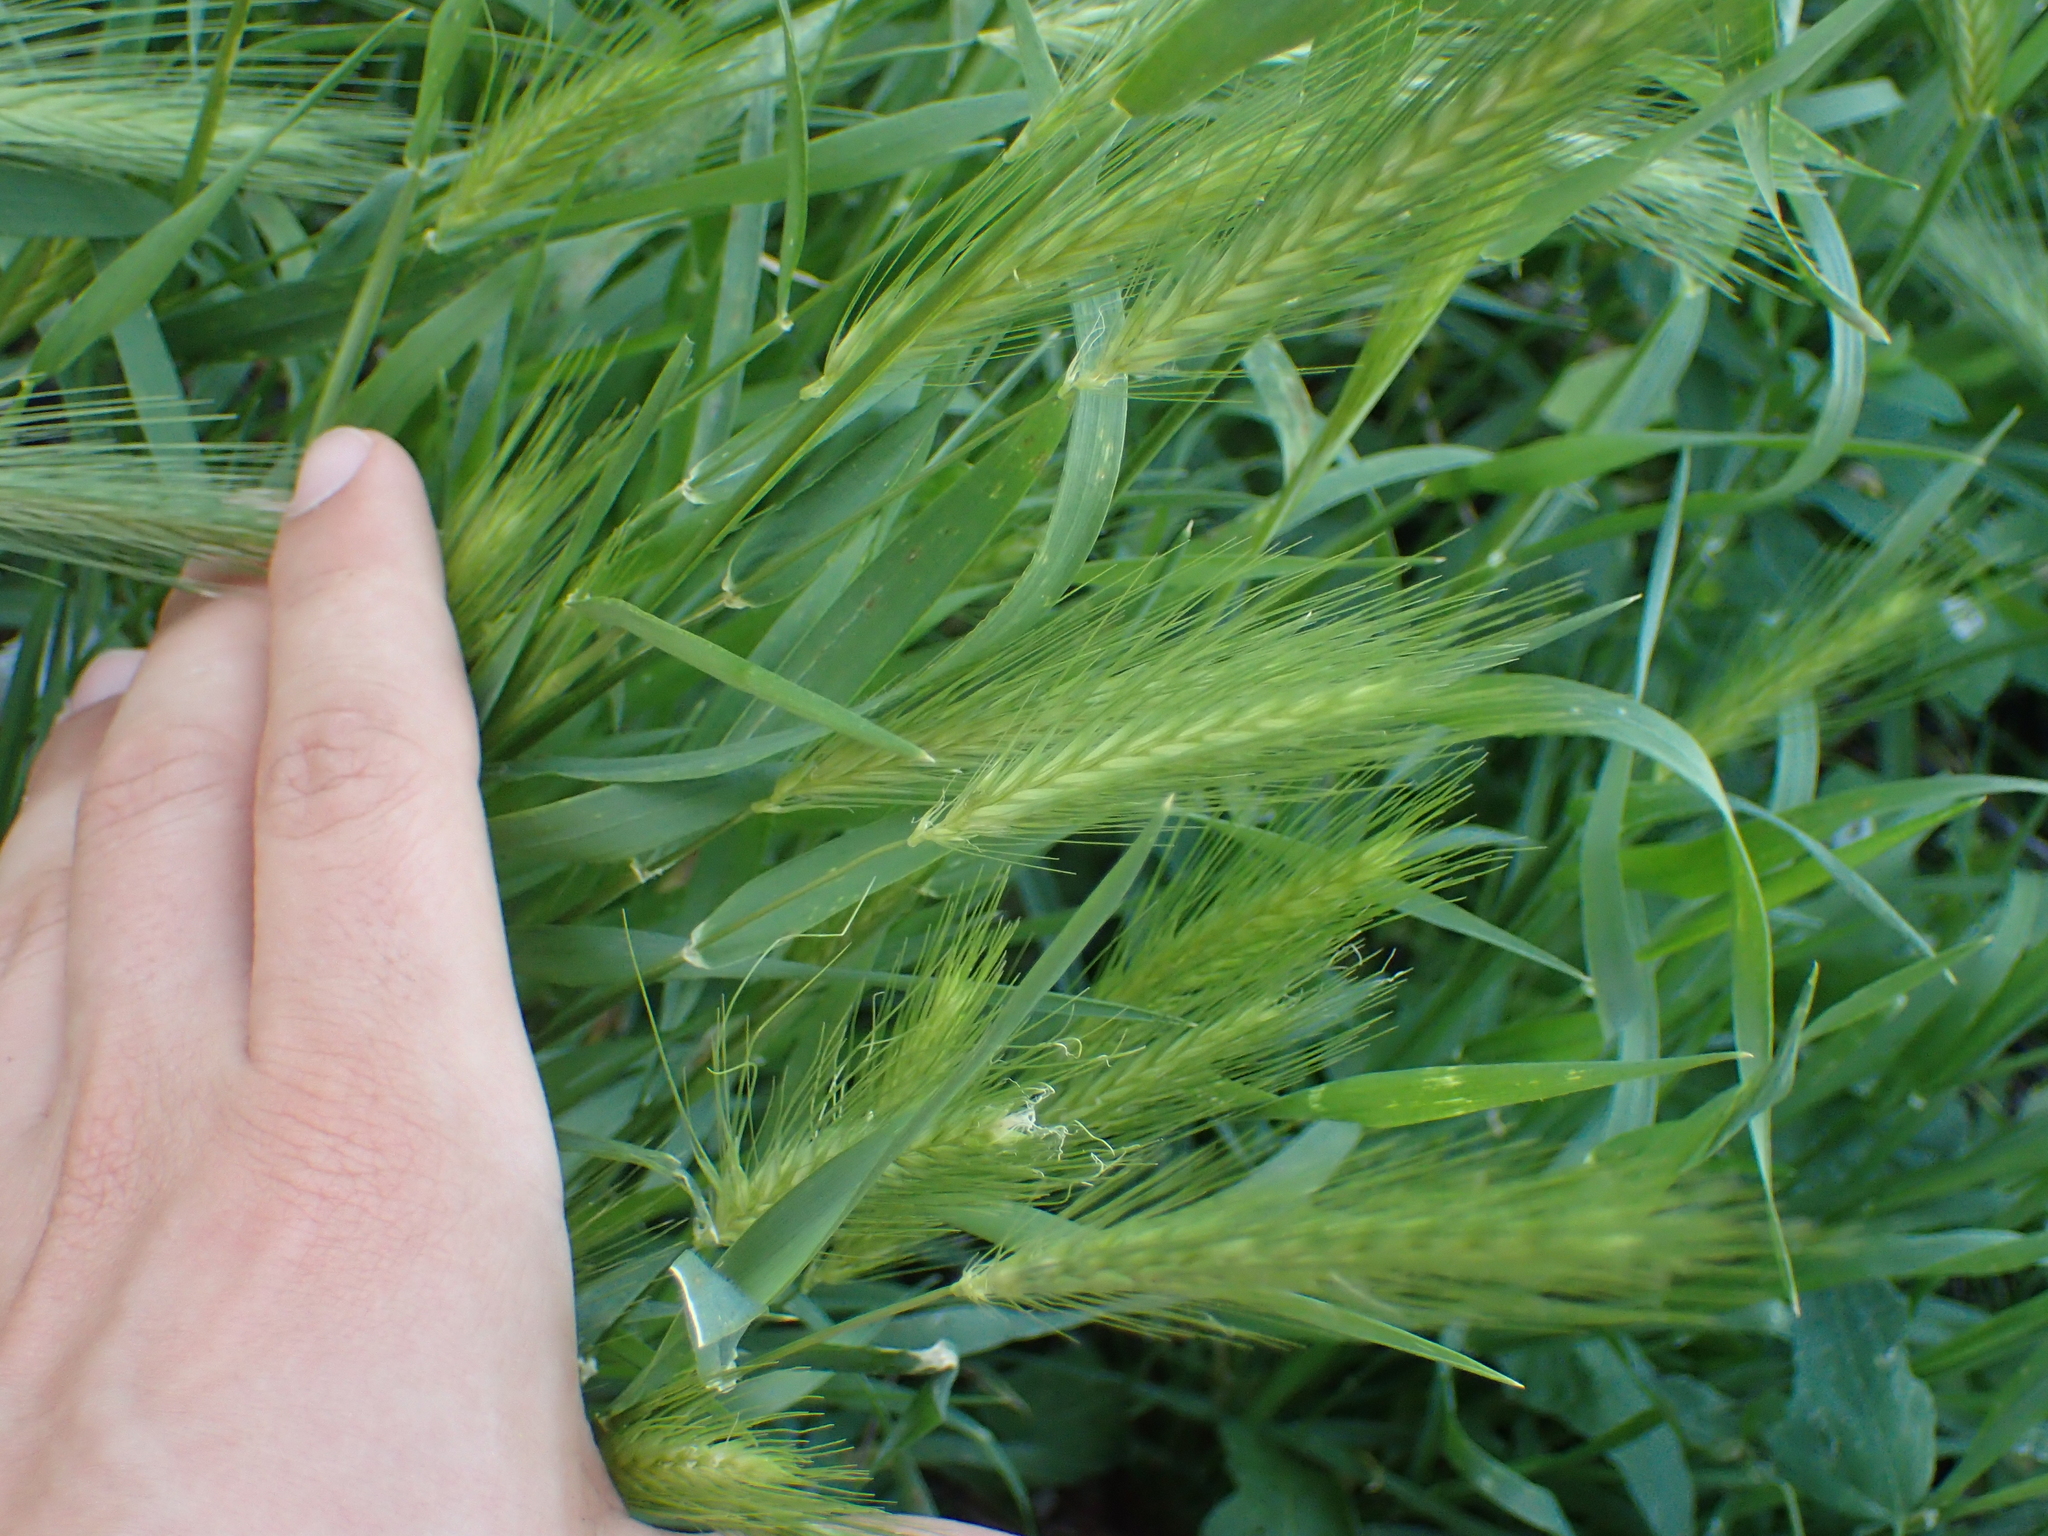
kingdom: Plantae
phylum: Tracheophyta
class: Liliopsida
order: Poales
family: Poaceae
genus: Hordeum
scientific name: Hordeum murinum
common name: Wall barley
